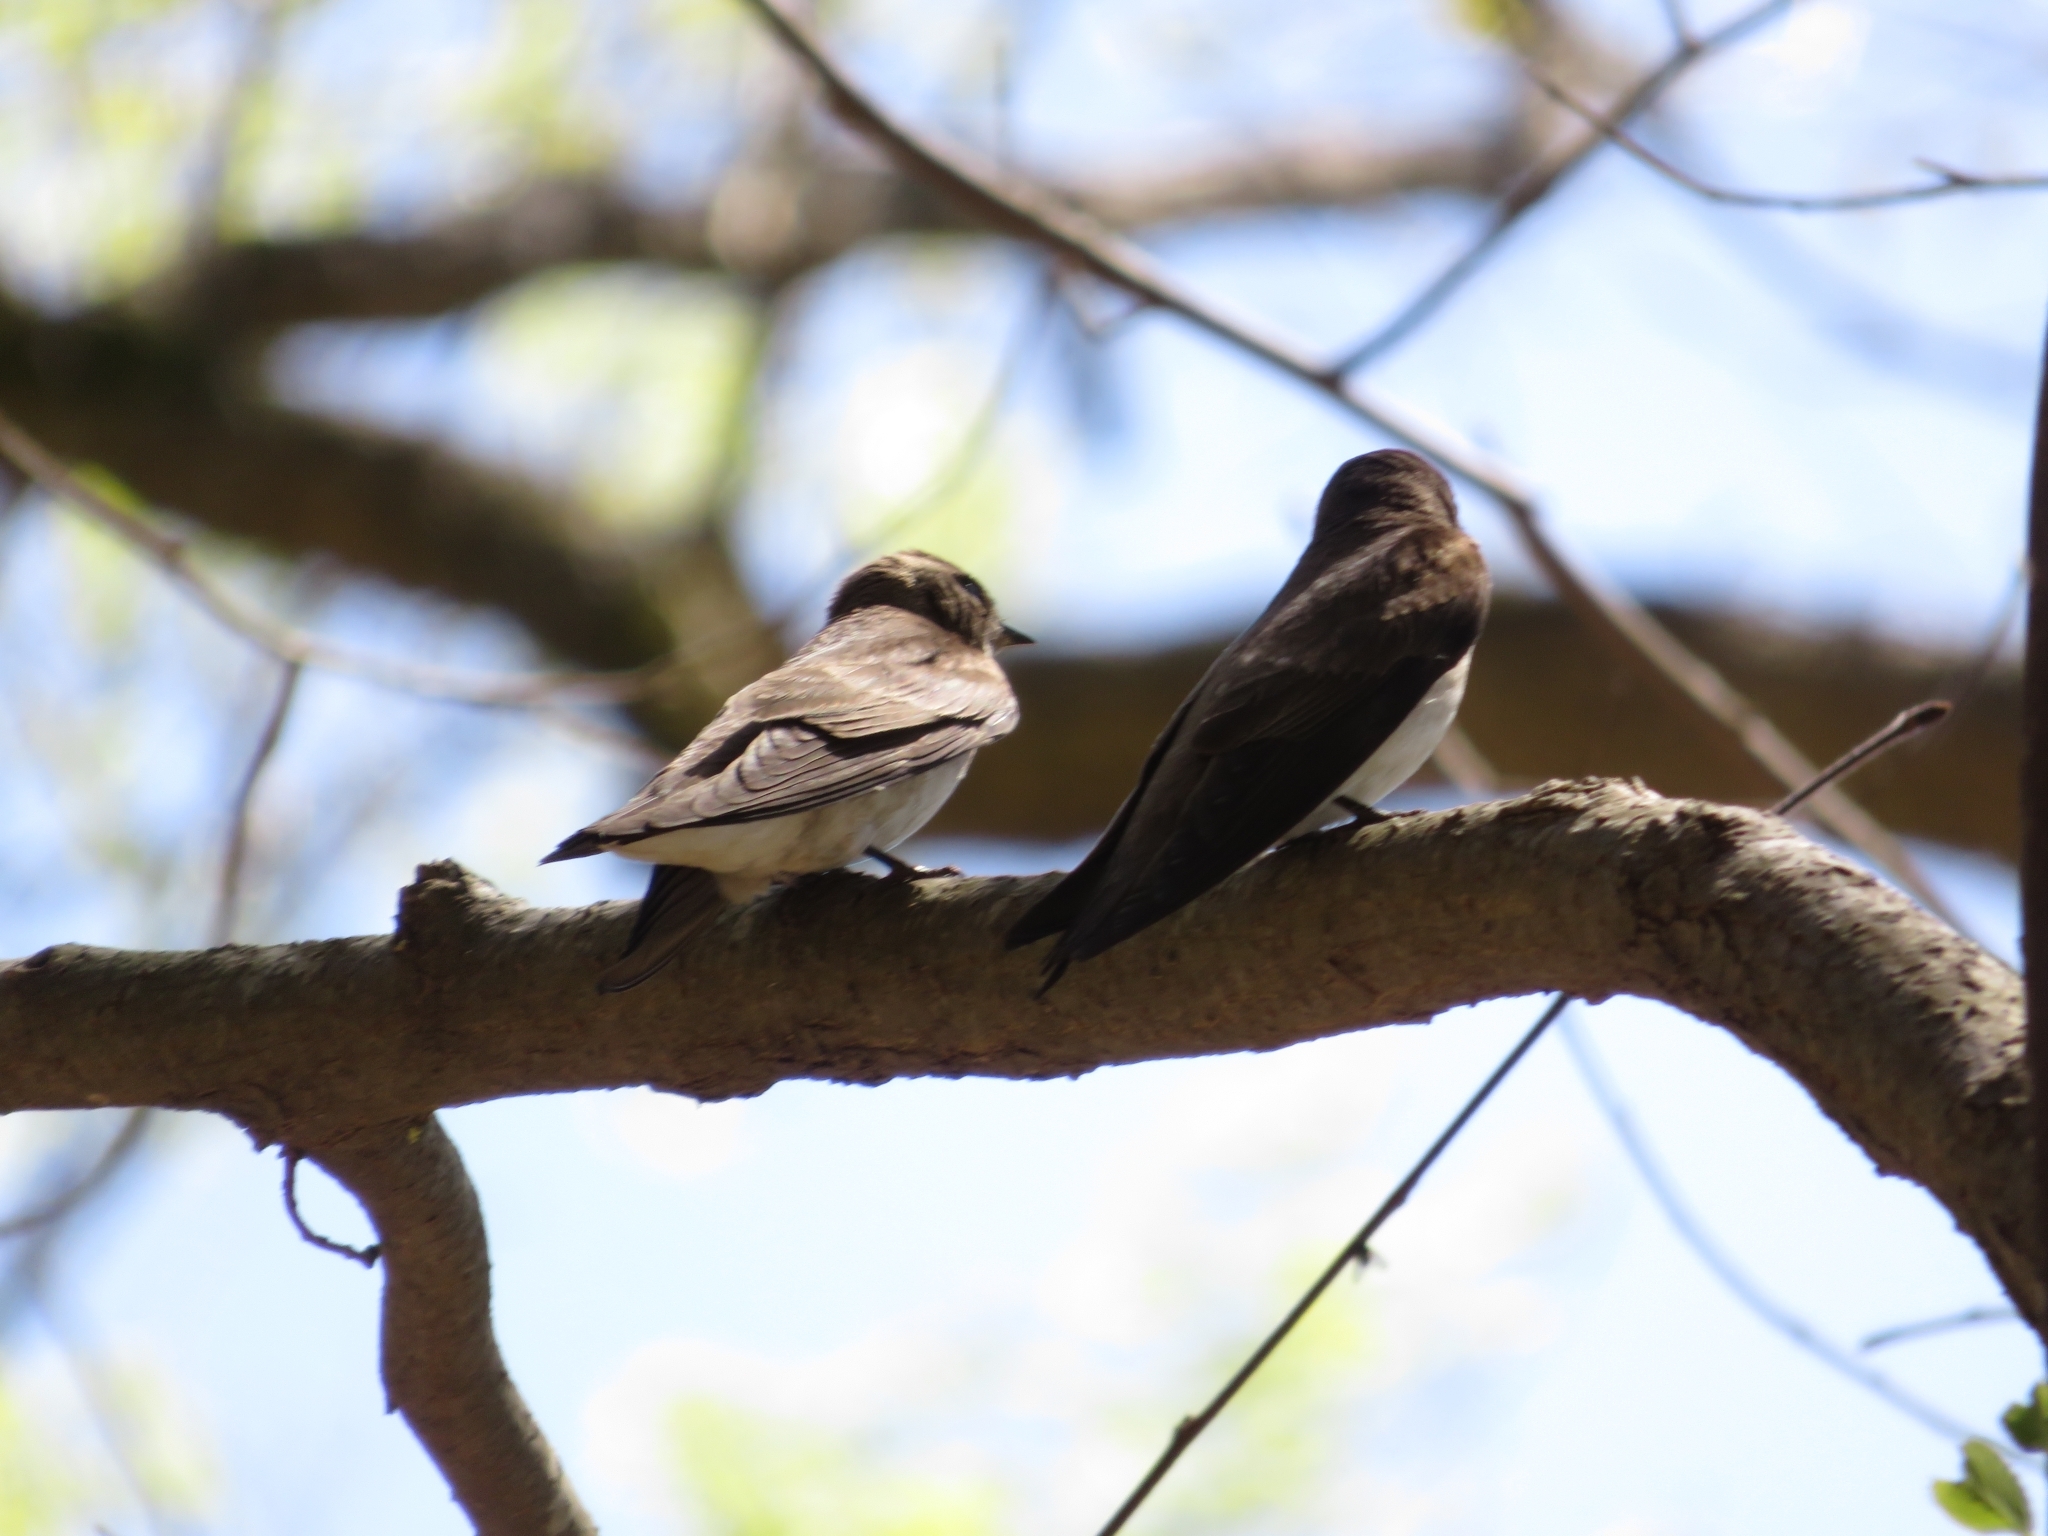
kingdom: Animalia
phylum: Chordata
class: Aves
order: Passeriformes
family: Hirundinidae
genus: Stelgidopteryx
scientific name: Stelgidopteryx serripennis
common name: Northern rough-winged swallow
